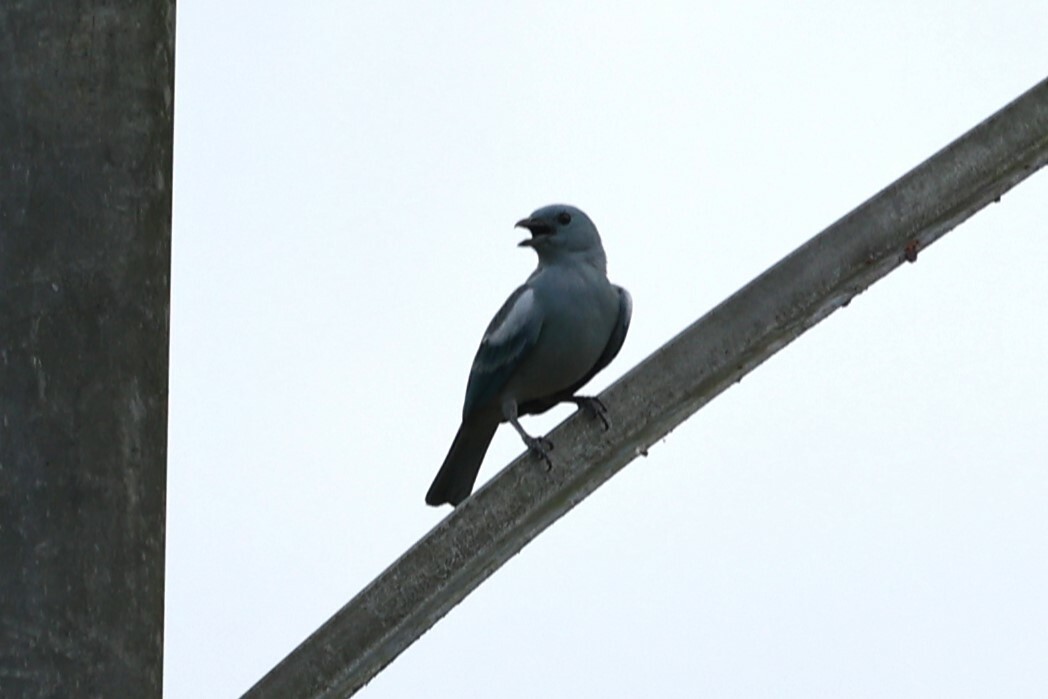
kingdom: Animalia
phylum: Chordata
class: Aves
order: Passeriformes
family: Thraupidae
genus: Thraupis
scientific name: Thraupis episcopus
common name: Blue-grey tanager
